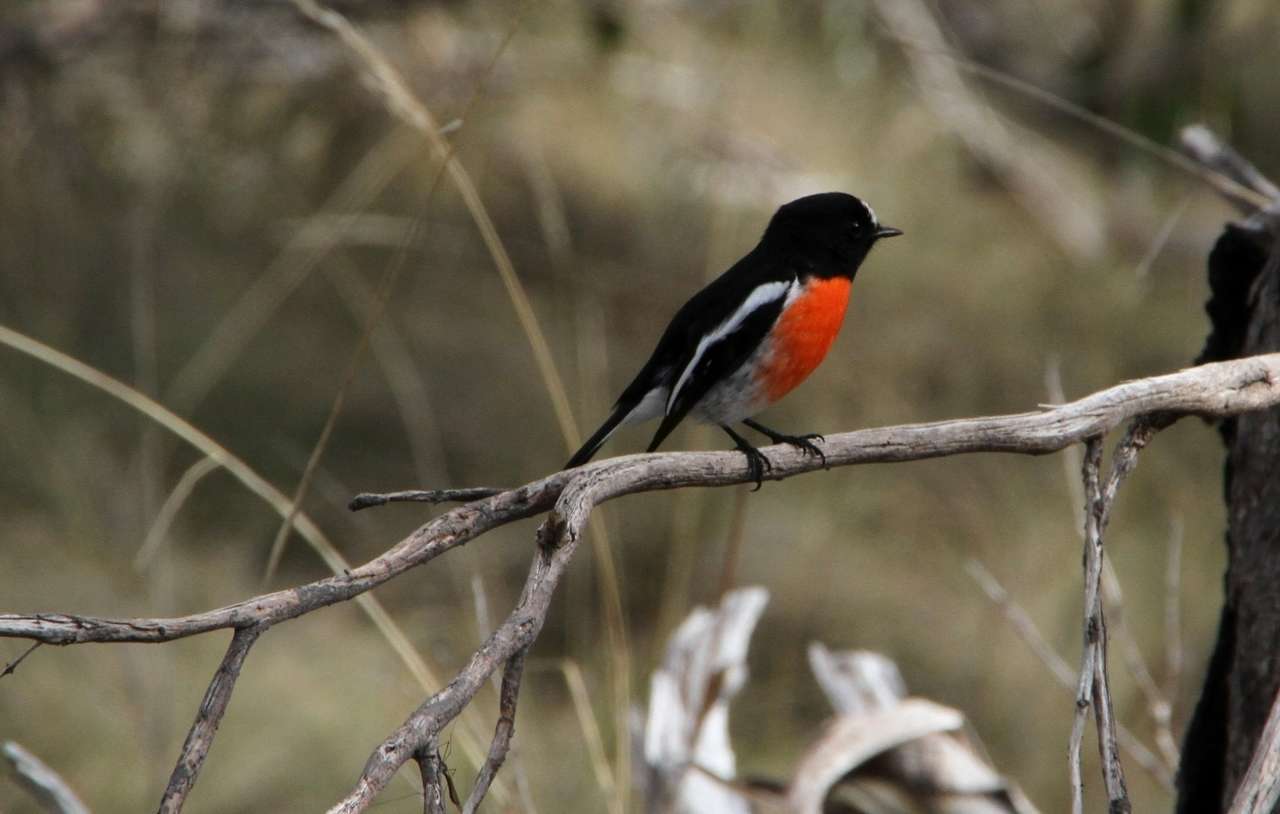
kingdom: Animalia
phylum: Chordata
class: Aves
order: Passeriformes
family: Petroicidae
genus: Petroica
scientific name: Petroica boodang
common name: Scarlet robin
